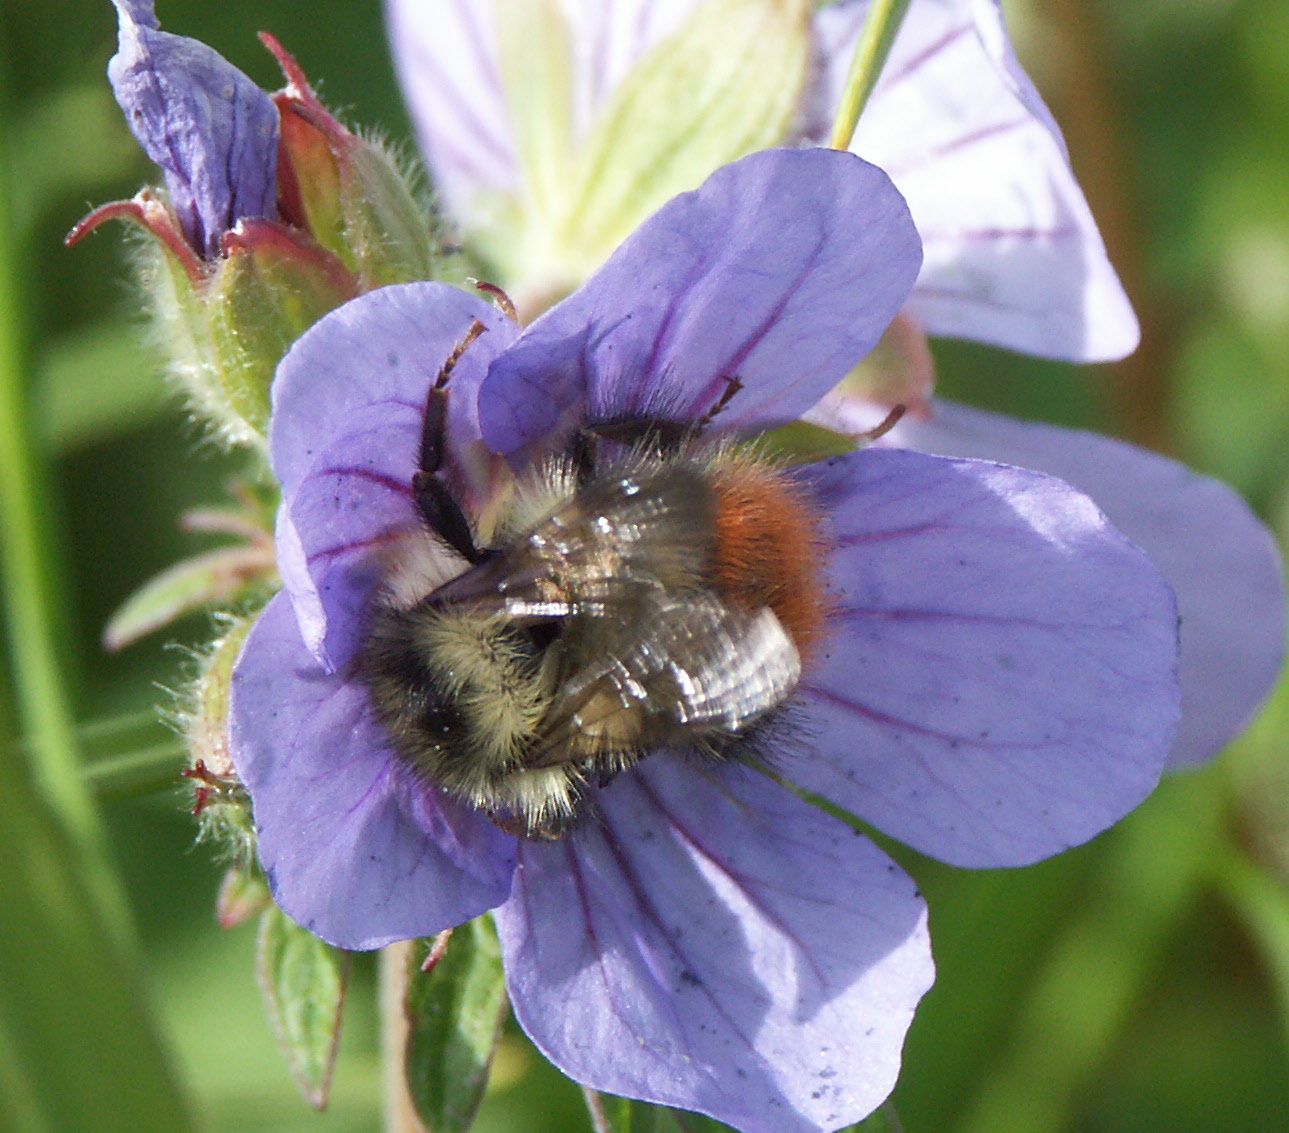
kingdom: Animalia
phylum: Arthropoda
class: Insecta
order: Hymenoptera
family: Apidae
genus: Bombus
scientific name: Bombus flavifrons
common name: Yellow head bumble bee
